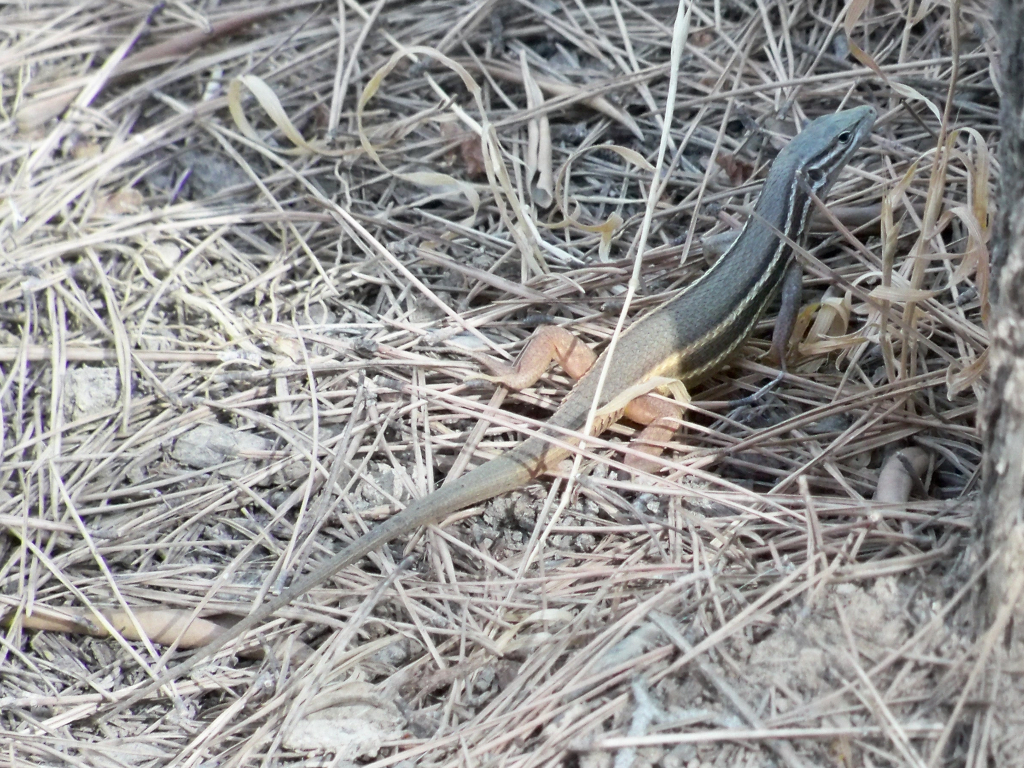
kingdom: Animalia
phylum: Chordata
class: Squamata
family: Lacertidae
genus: Psammodromus
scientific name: Psammodromus algirus
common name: Algerian psammodromus
